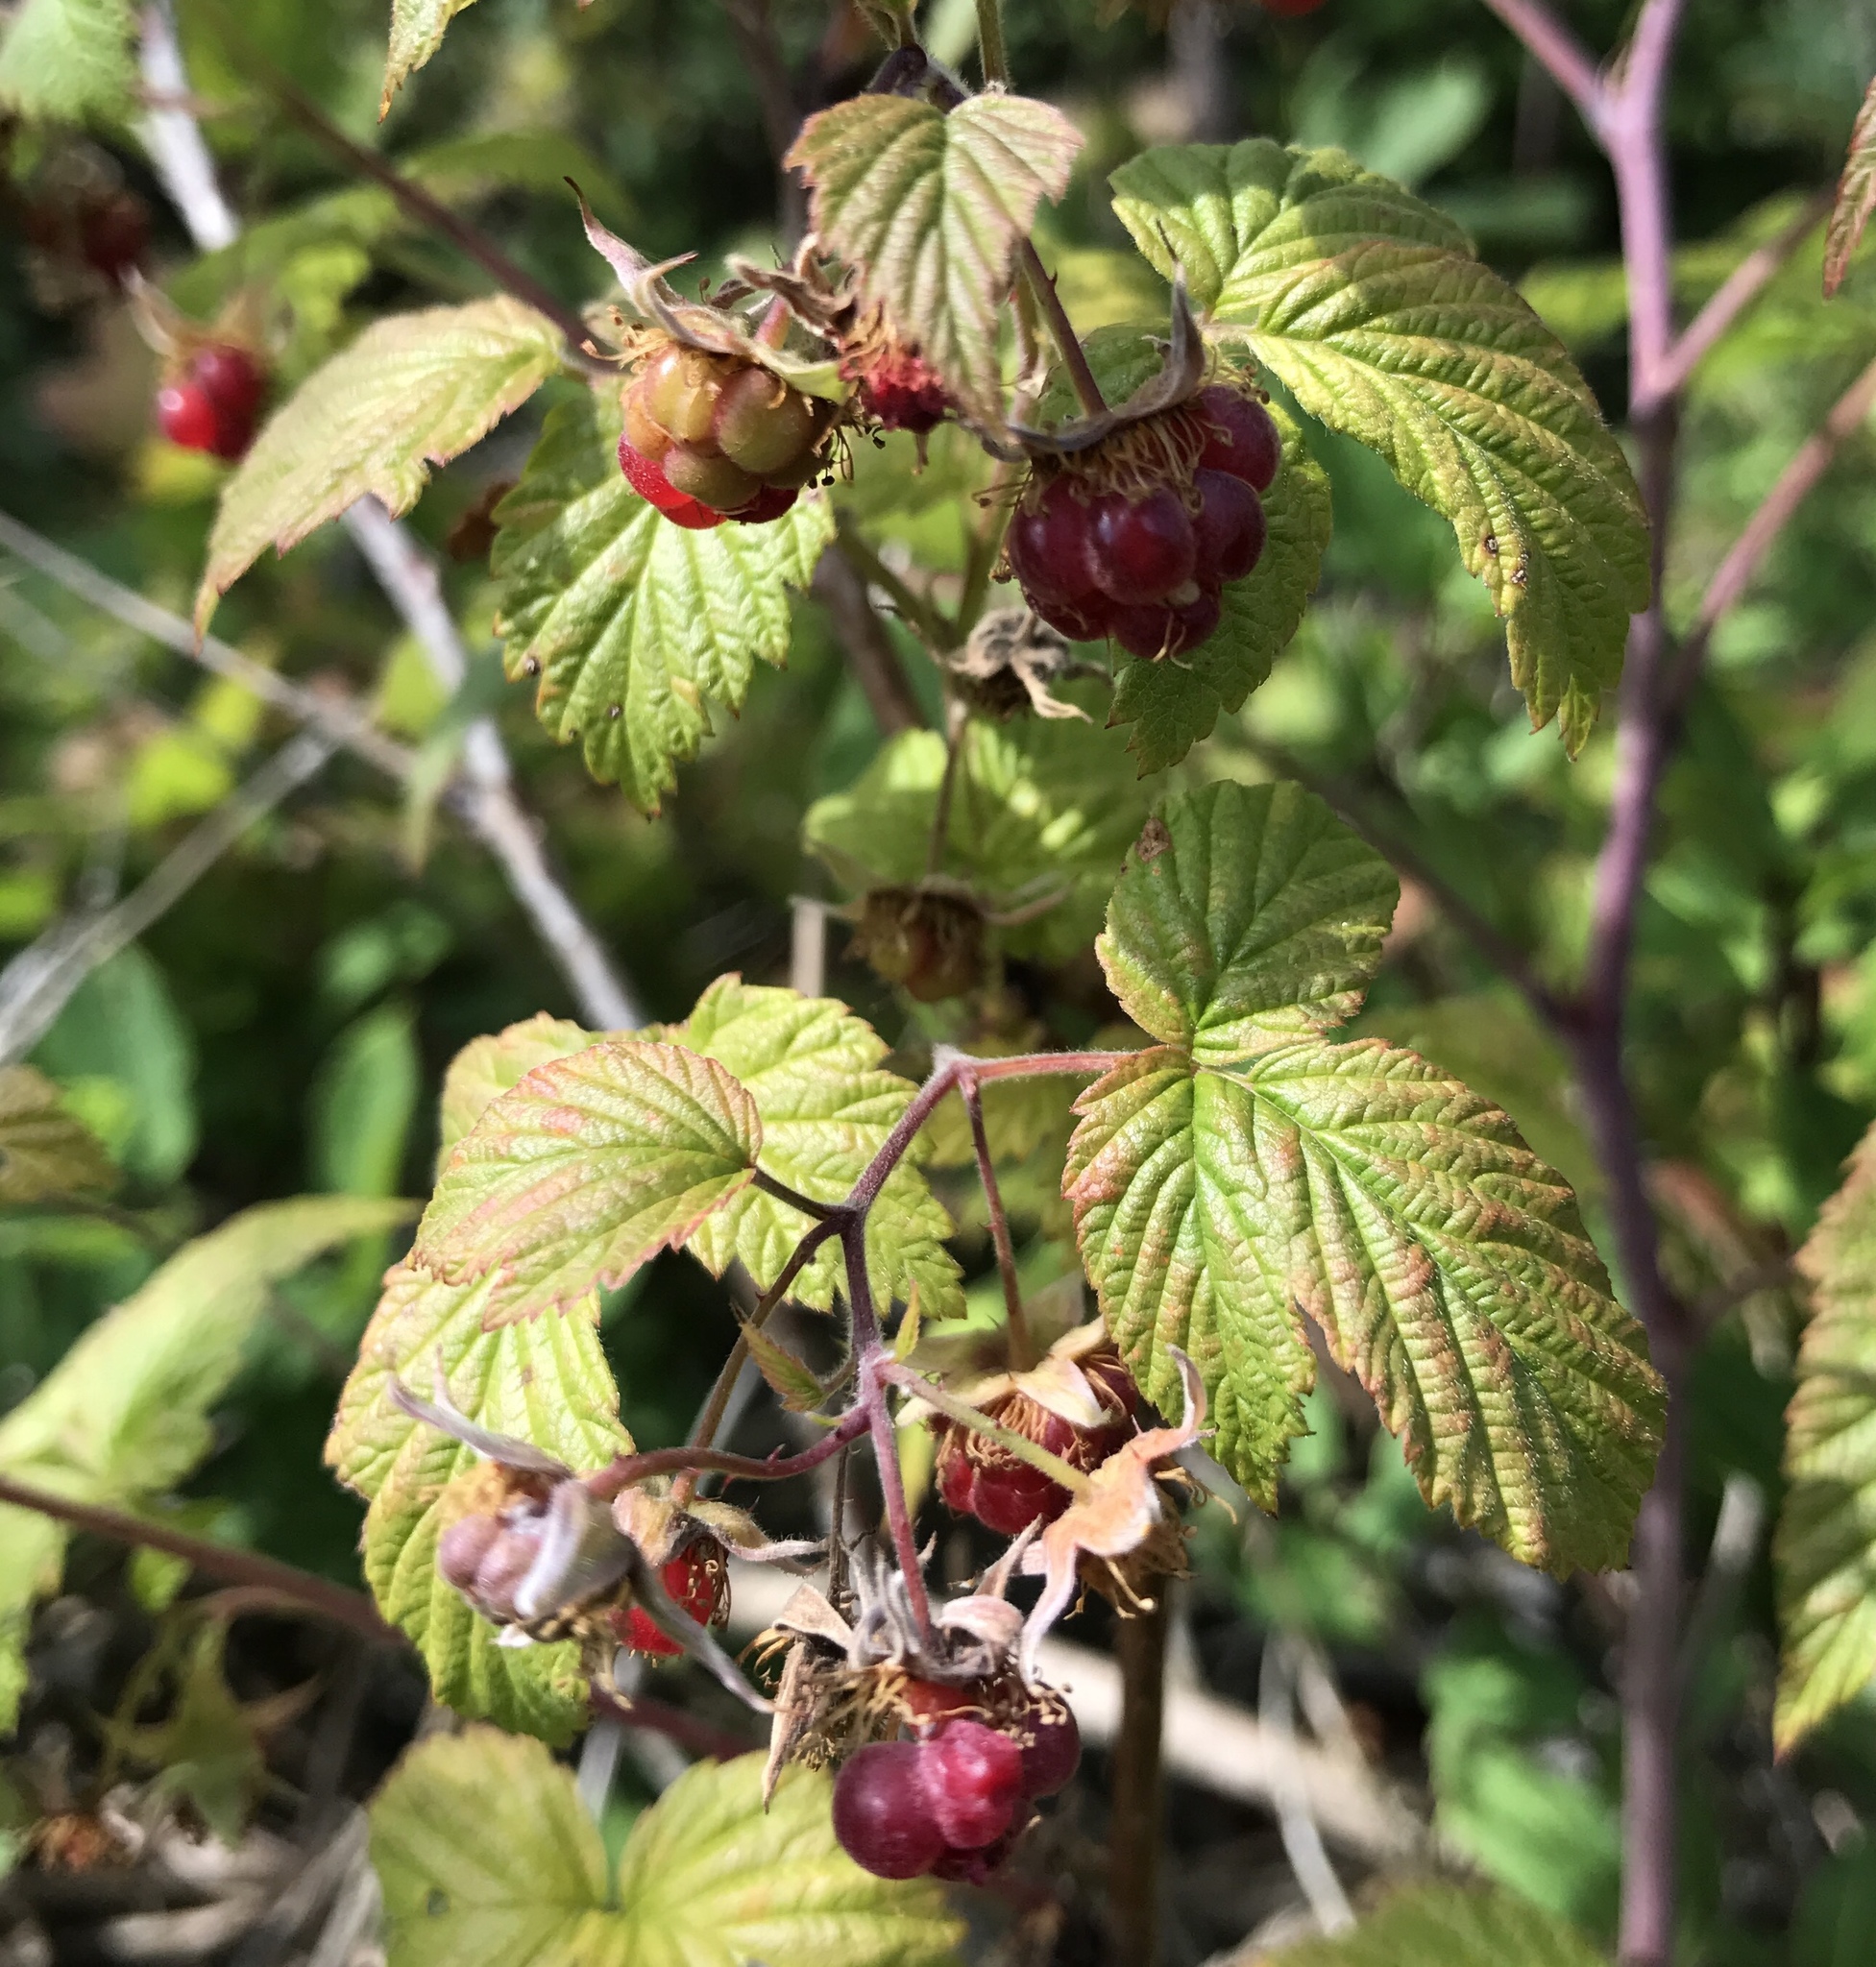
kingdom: Plantae
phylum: Tracheophyta
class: Magnoliopsida
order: Rosales
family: Rosaceae
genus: Rubus
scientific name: Rubus idaeus
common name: Raspberry
